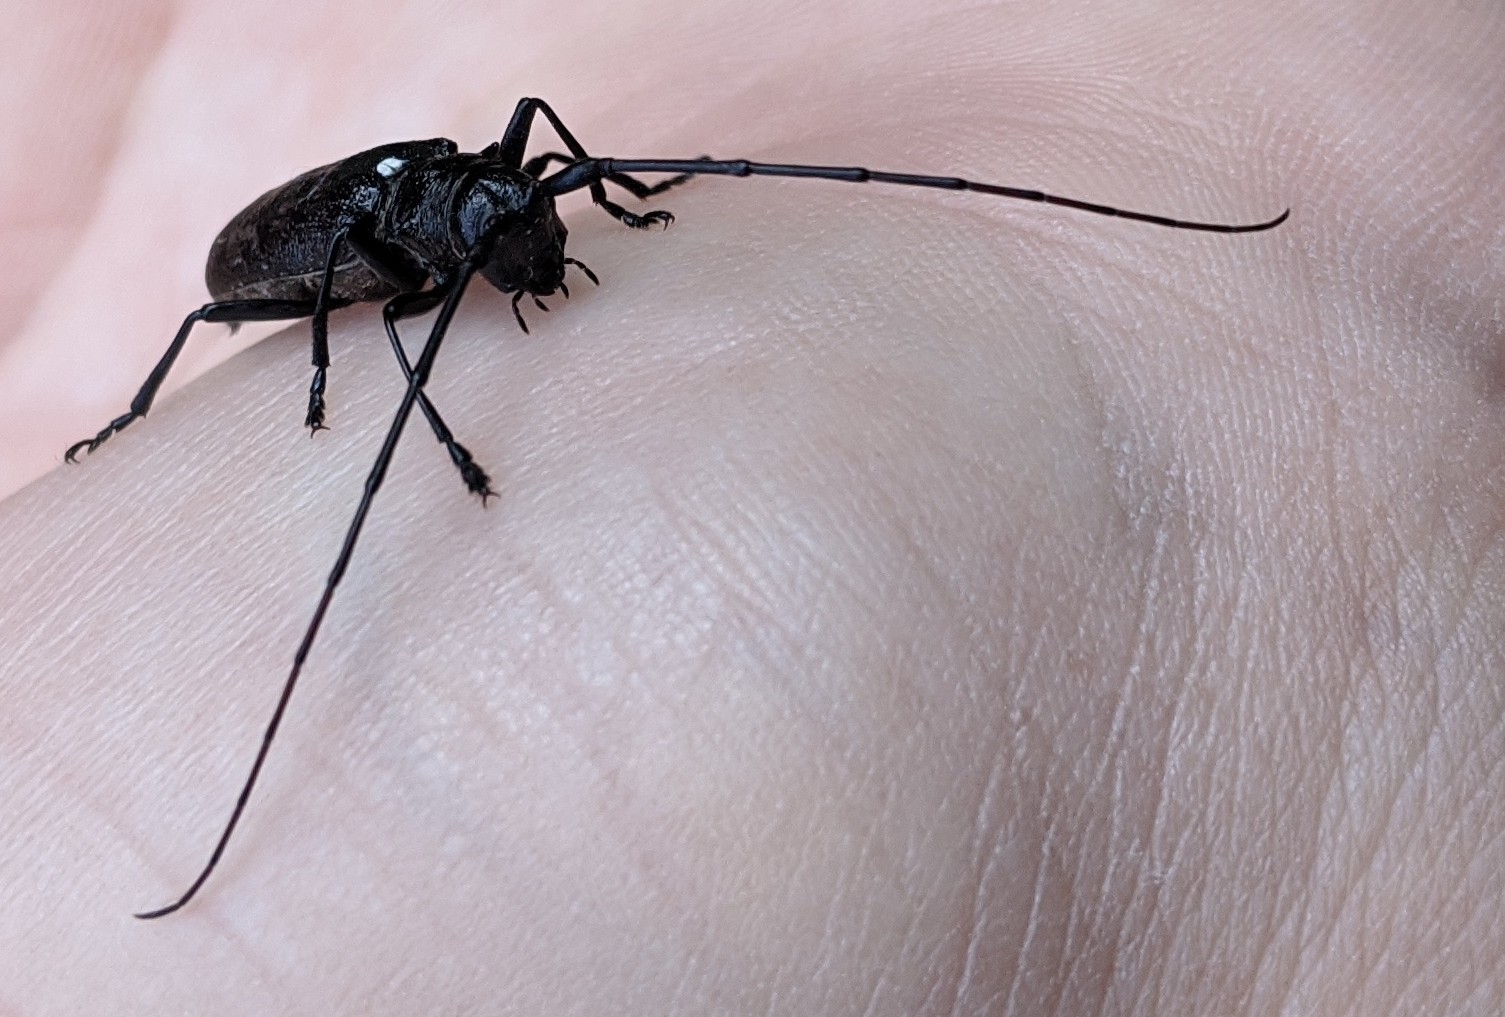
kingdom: Animalia
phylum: Arthropoda
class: Insecta
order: Coleoptera
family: Cerambycidae
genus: Monochamus
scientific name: Monochamus scutellatus
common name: White-spotted sawyer beetle
